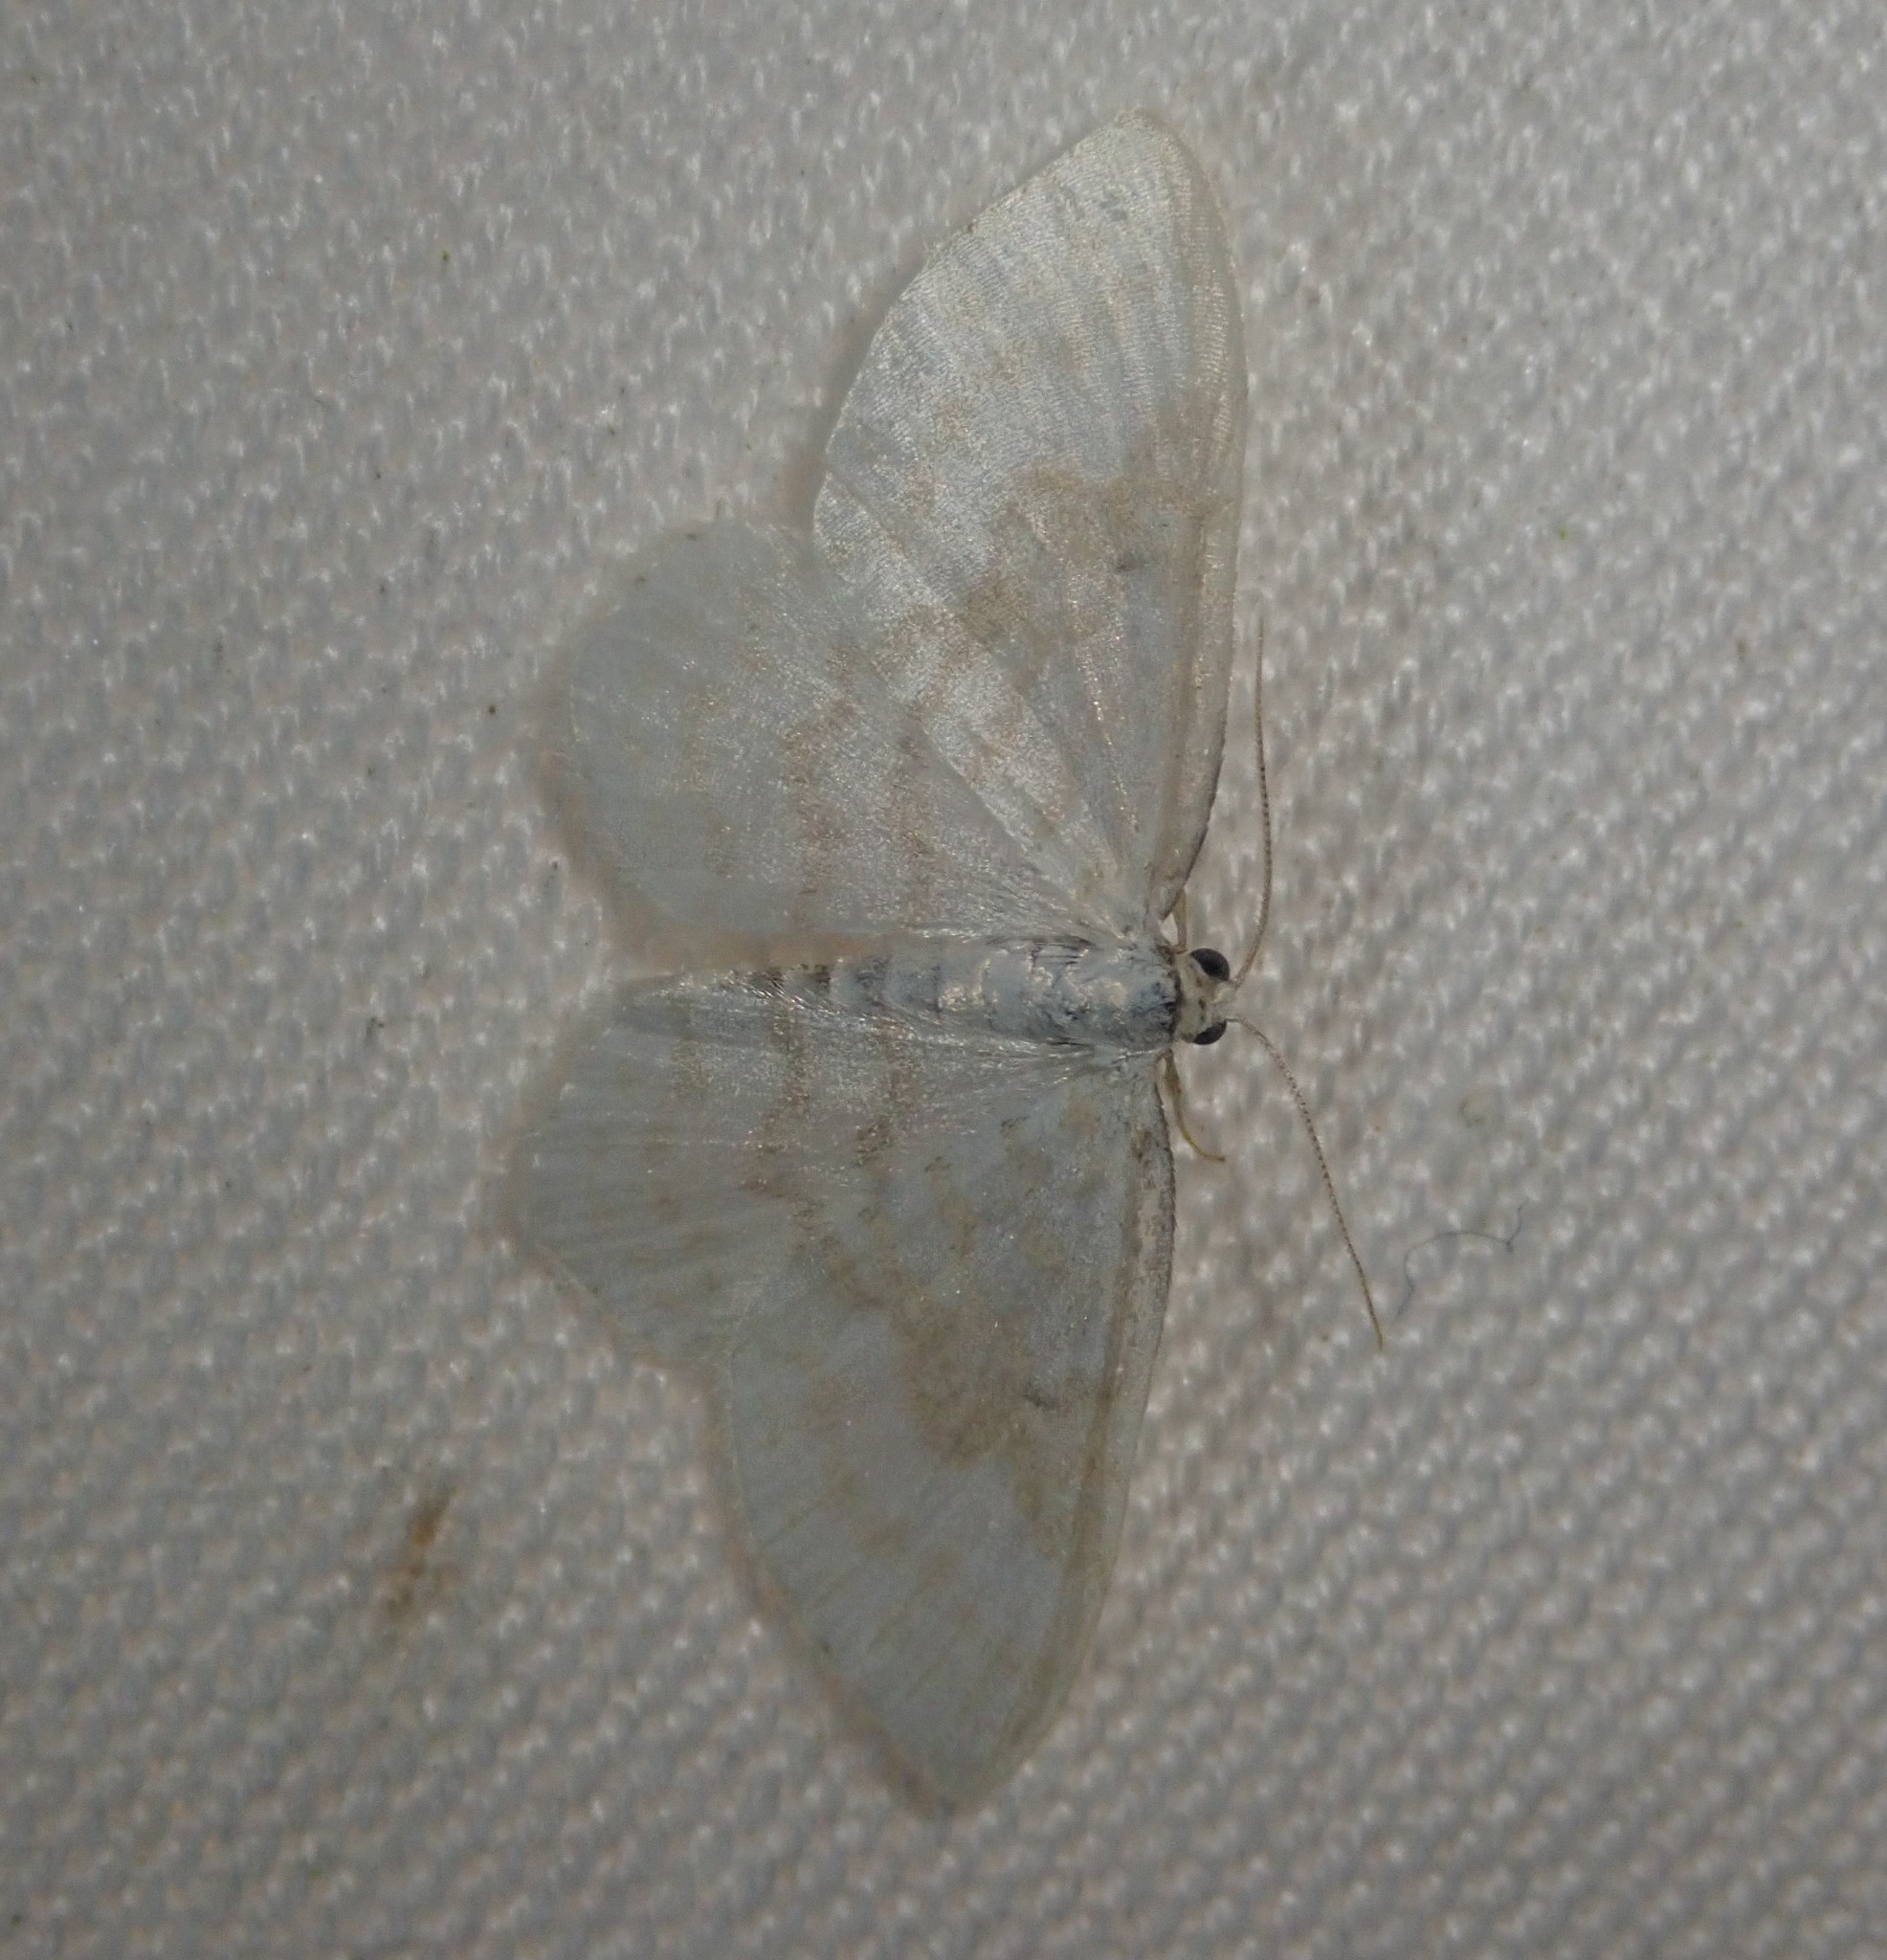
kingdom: Animalia
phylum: Arthropoda
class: Insecta
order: Lepidoptera
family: Geometridae
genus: Asthena
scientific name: Asthena albulata
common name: Small white wave
